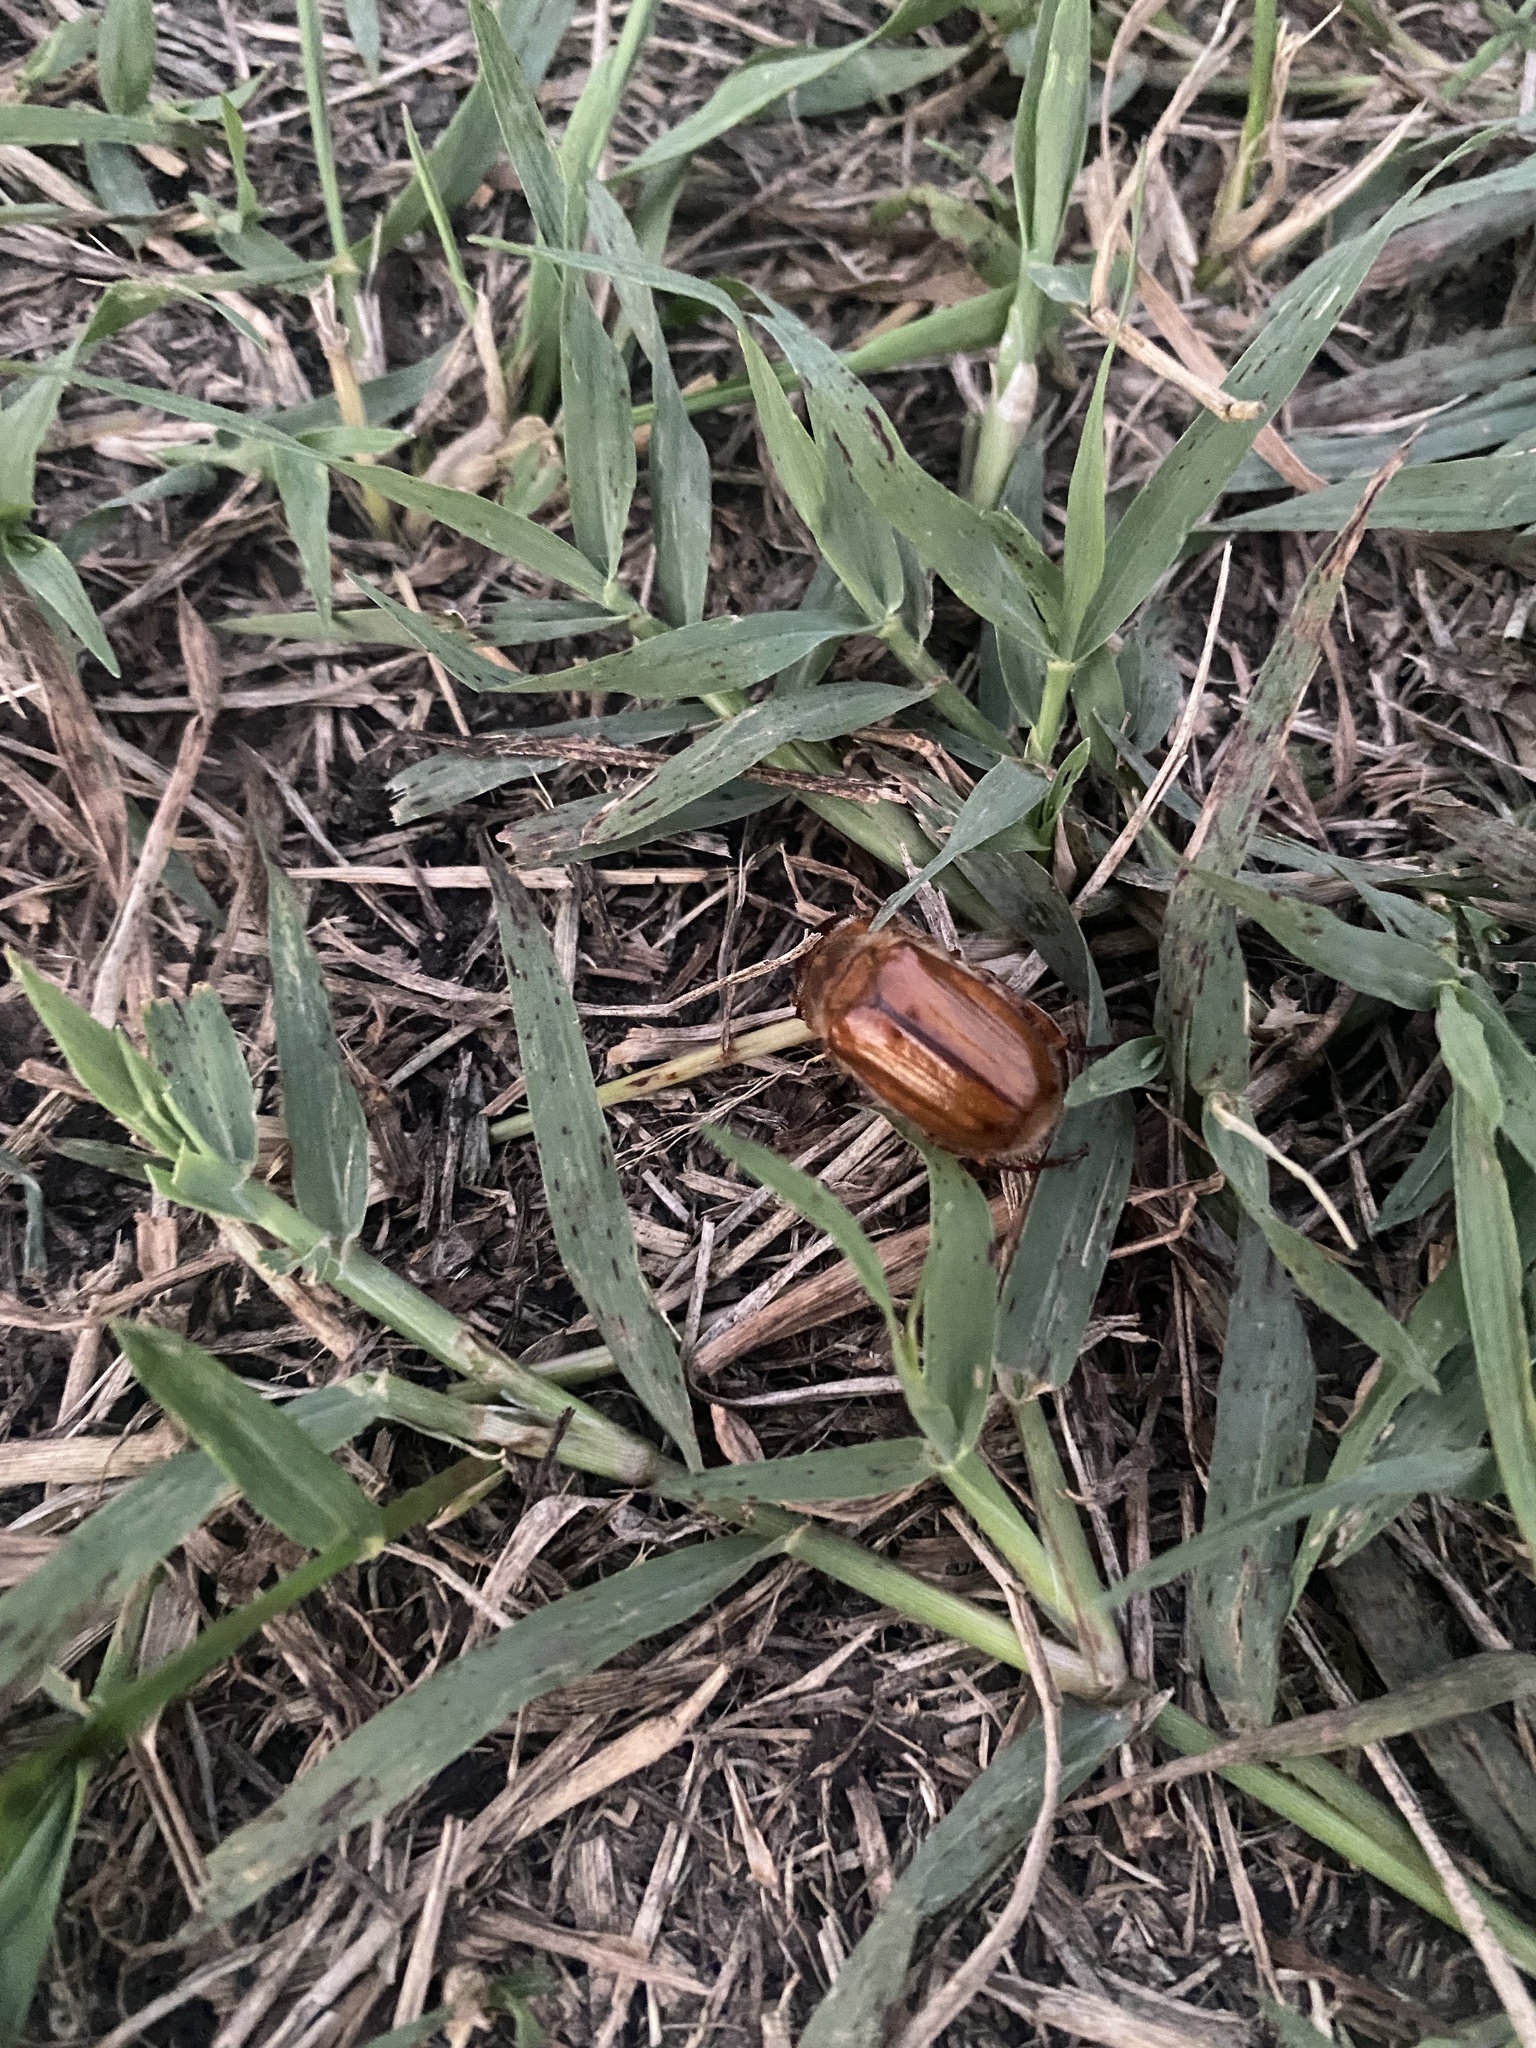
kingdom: Animalia
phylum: Arthropoda
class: Insecta
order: Coleoptera
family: Scarabaeidae
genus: Amphimallon
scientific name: Amphimallon solstitiale
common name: Summer chafer
